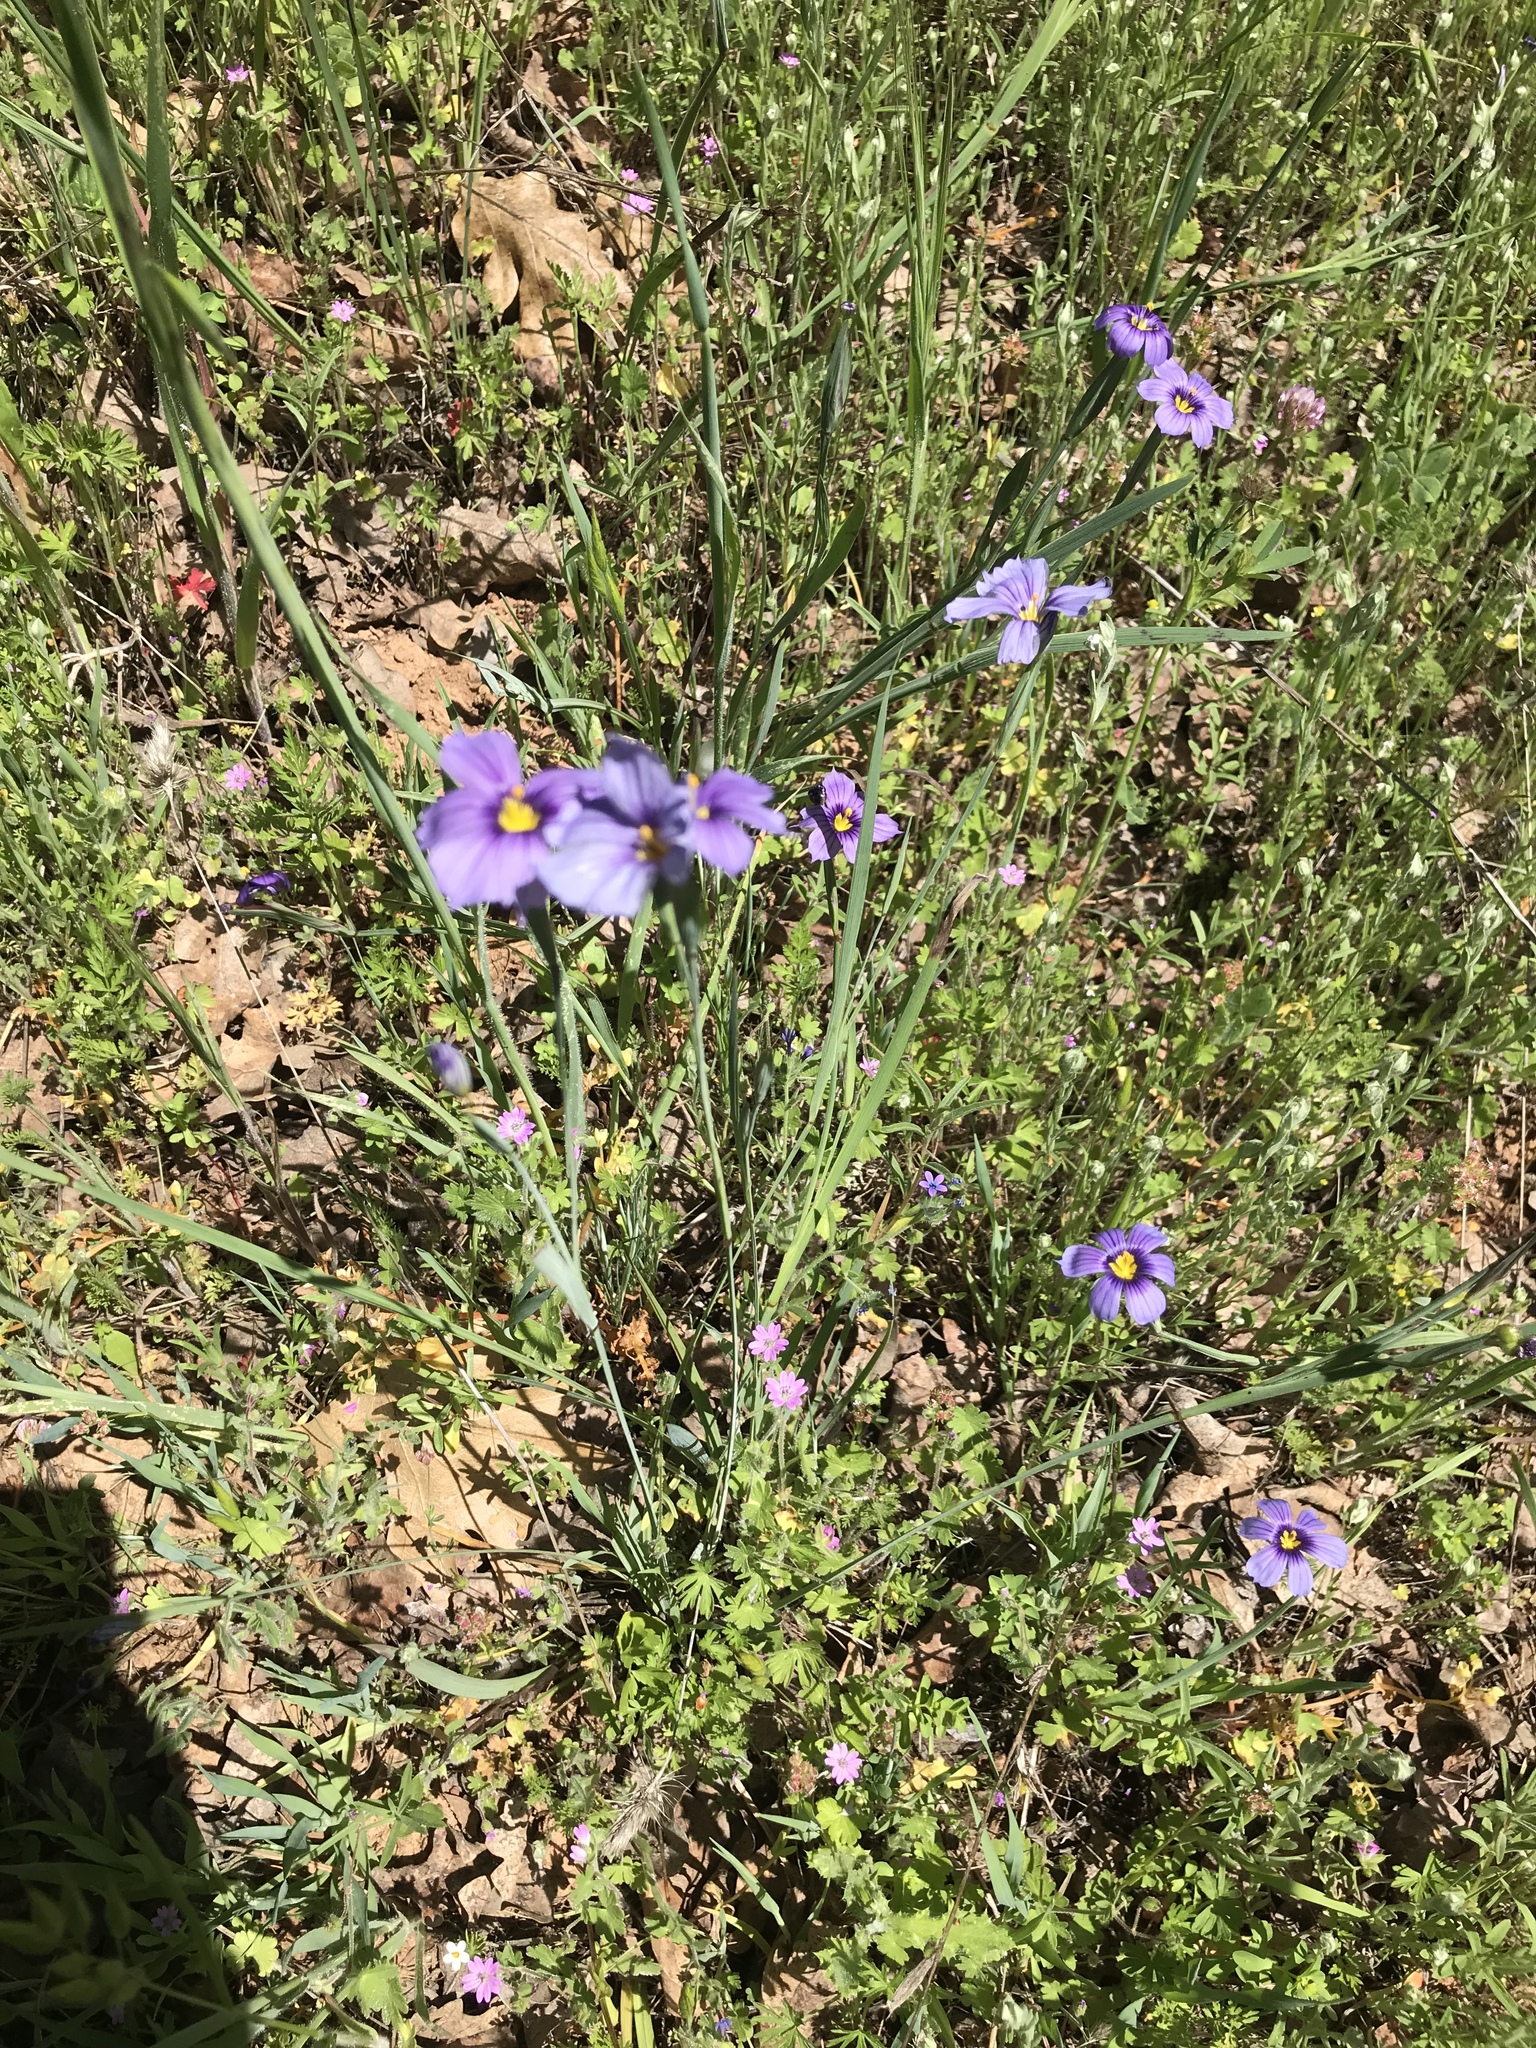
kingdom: Plantae
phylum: Tracheophyta
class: Liliopsida
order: Asparagales
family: Iridaceae
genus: Sisyrinchium
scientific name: Sisyrinchium bellum
